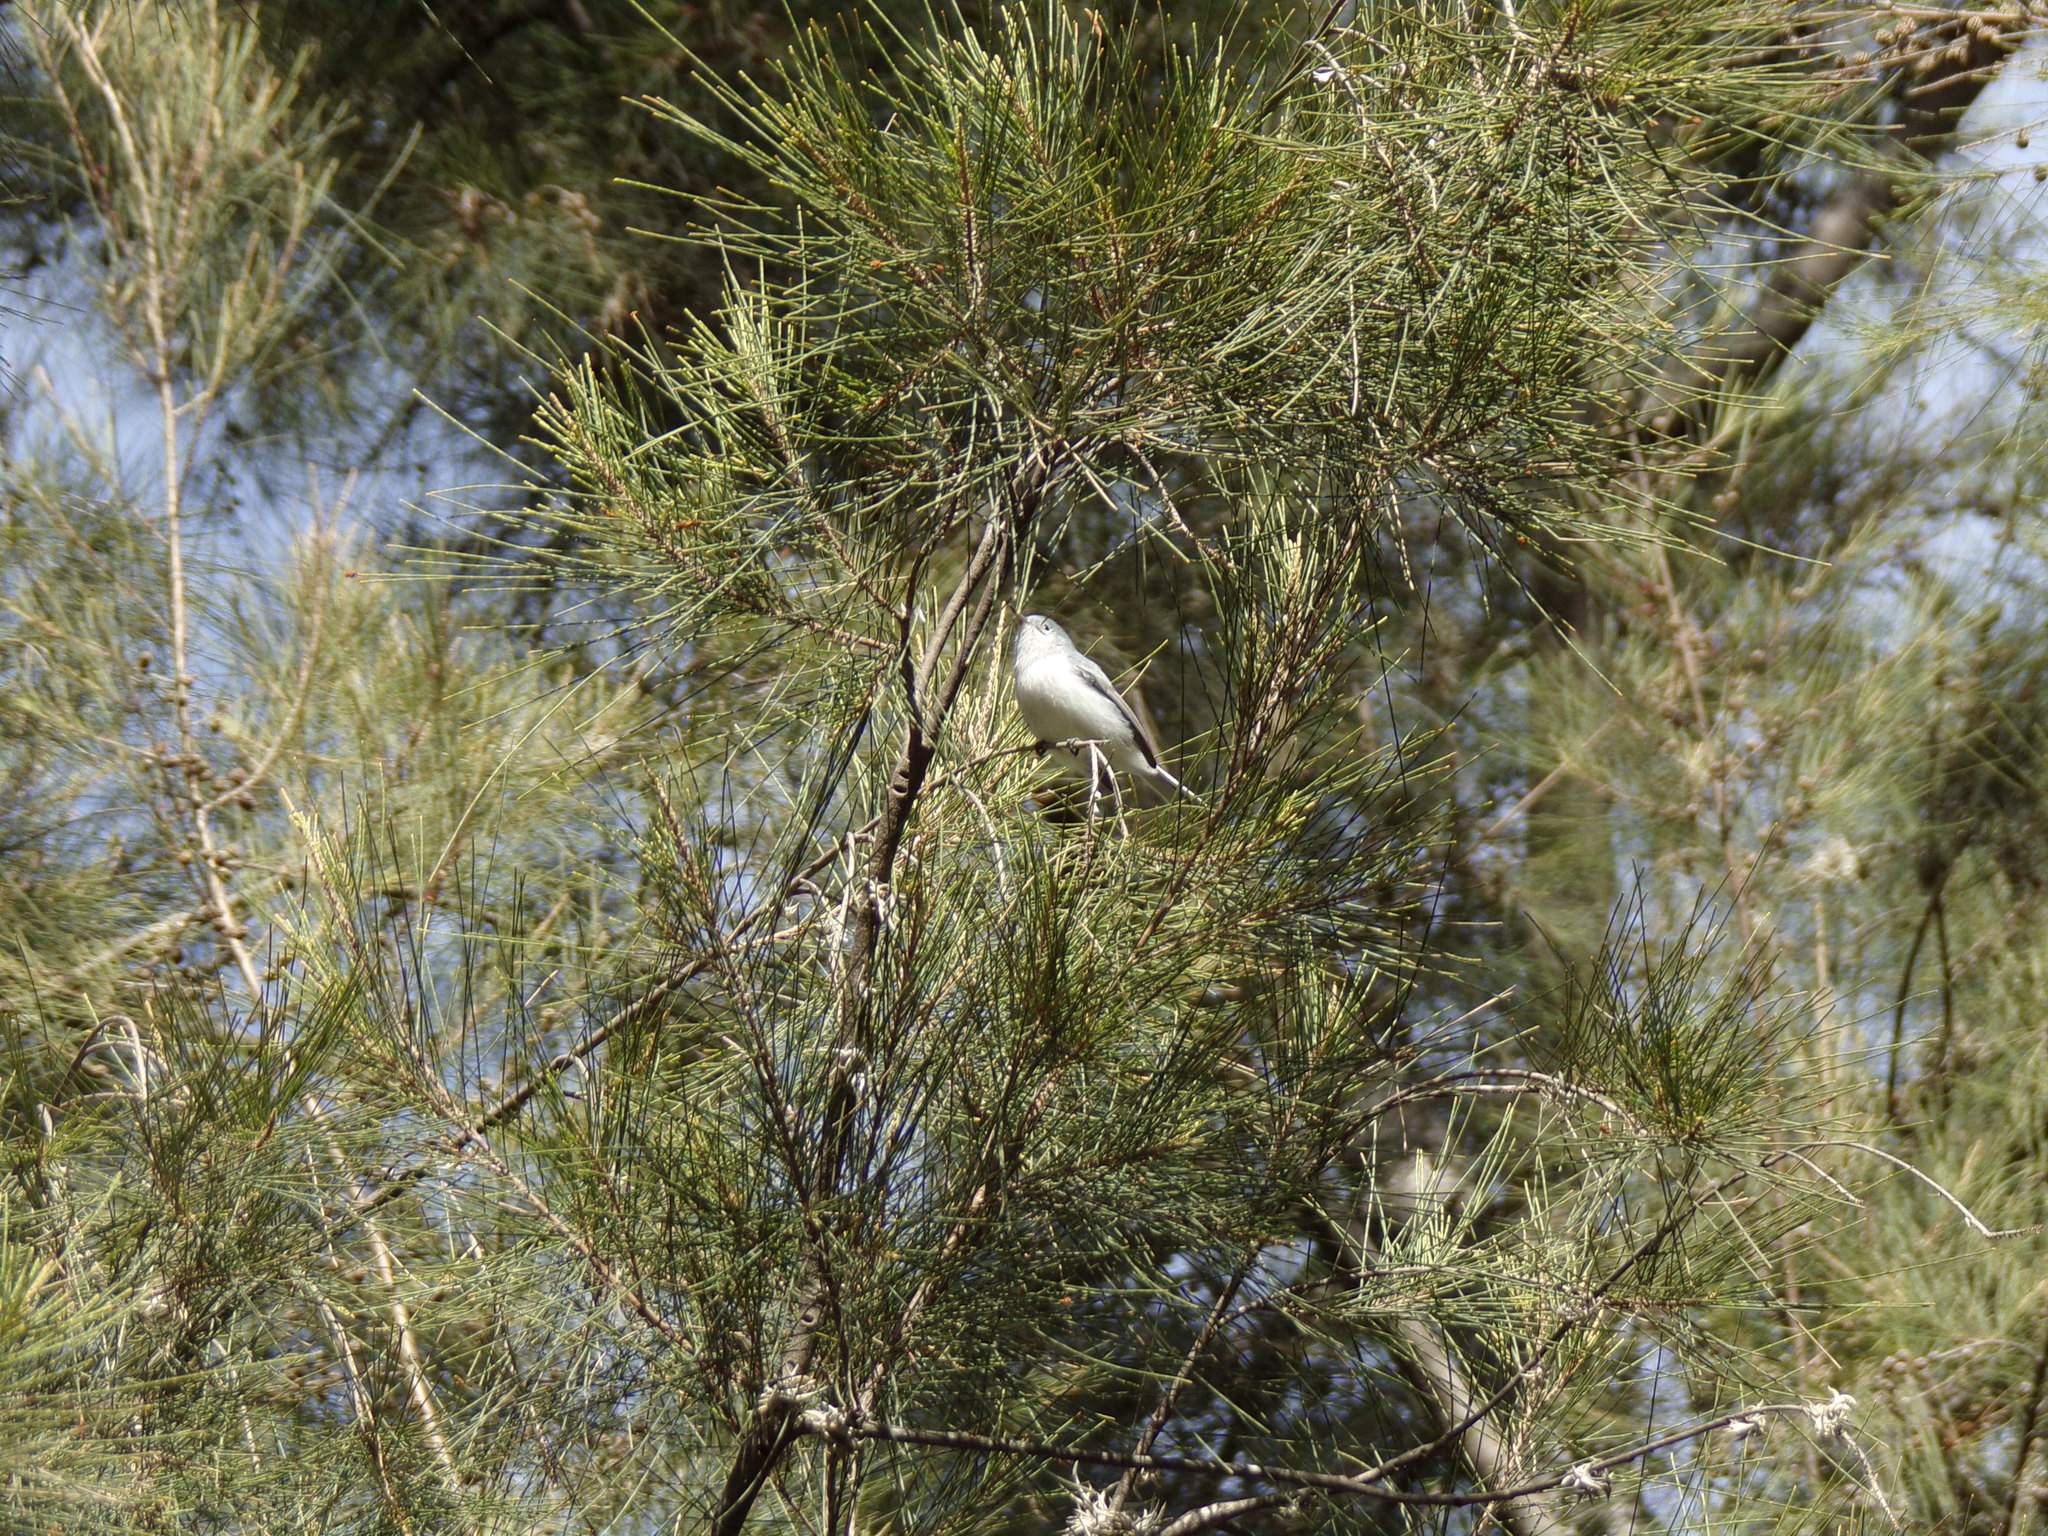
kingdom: Animalia
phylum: Chordata
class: Aves
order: Passeriformes
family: Polioptilidae
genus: Polioptila
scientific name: Polioptila caerulea
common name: Blue-gray gnatcatcher
